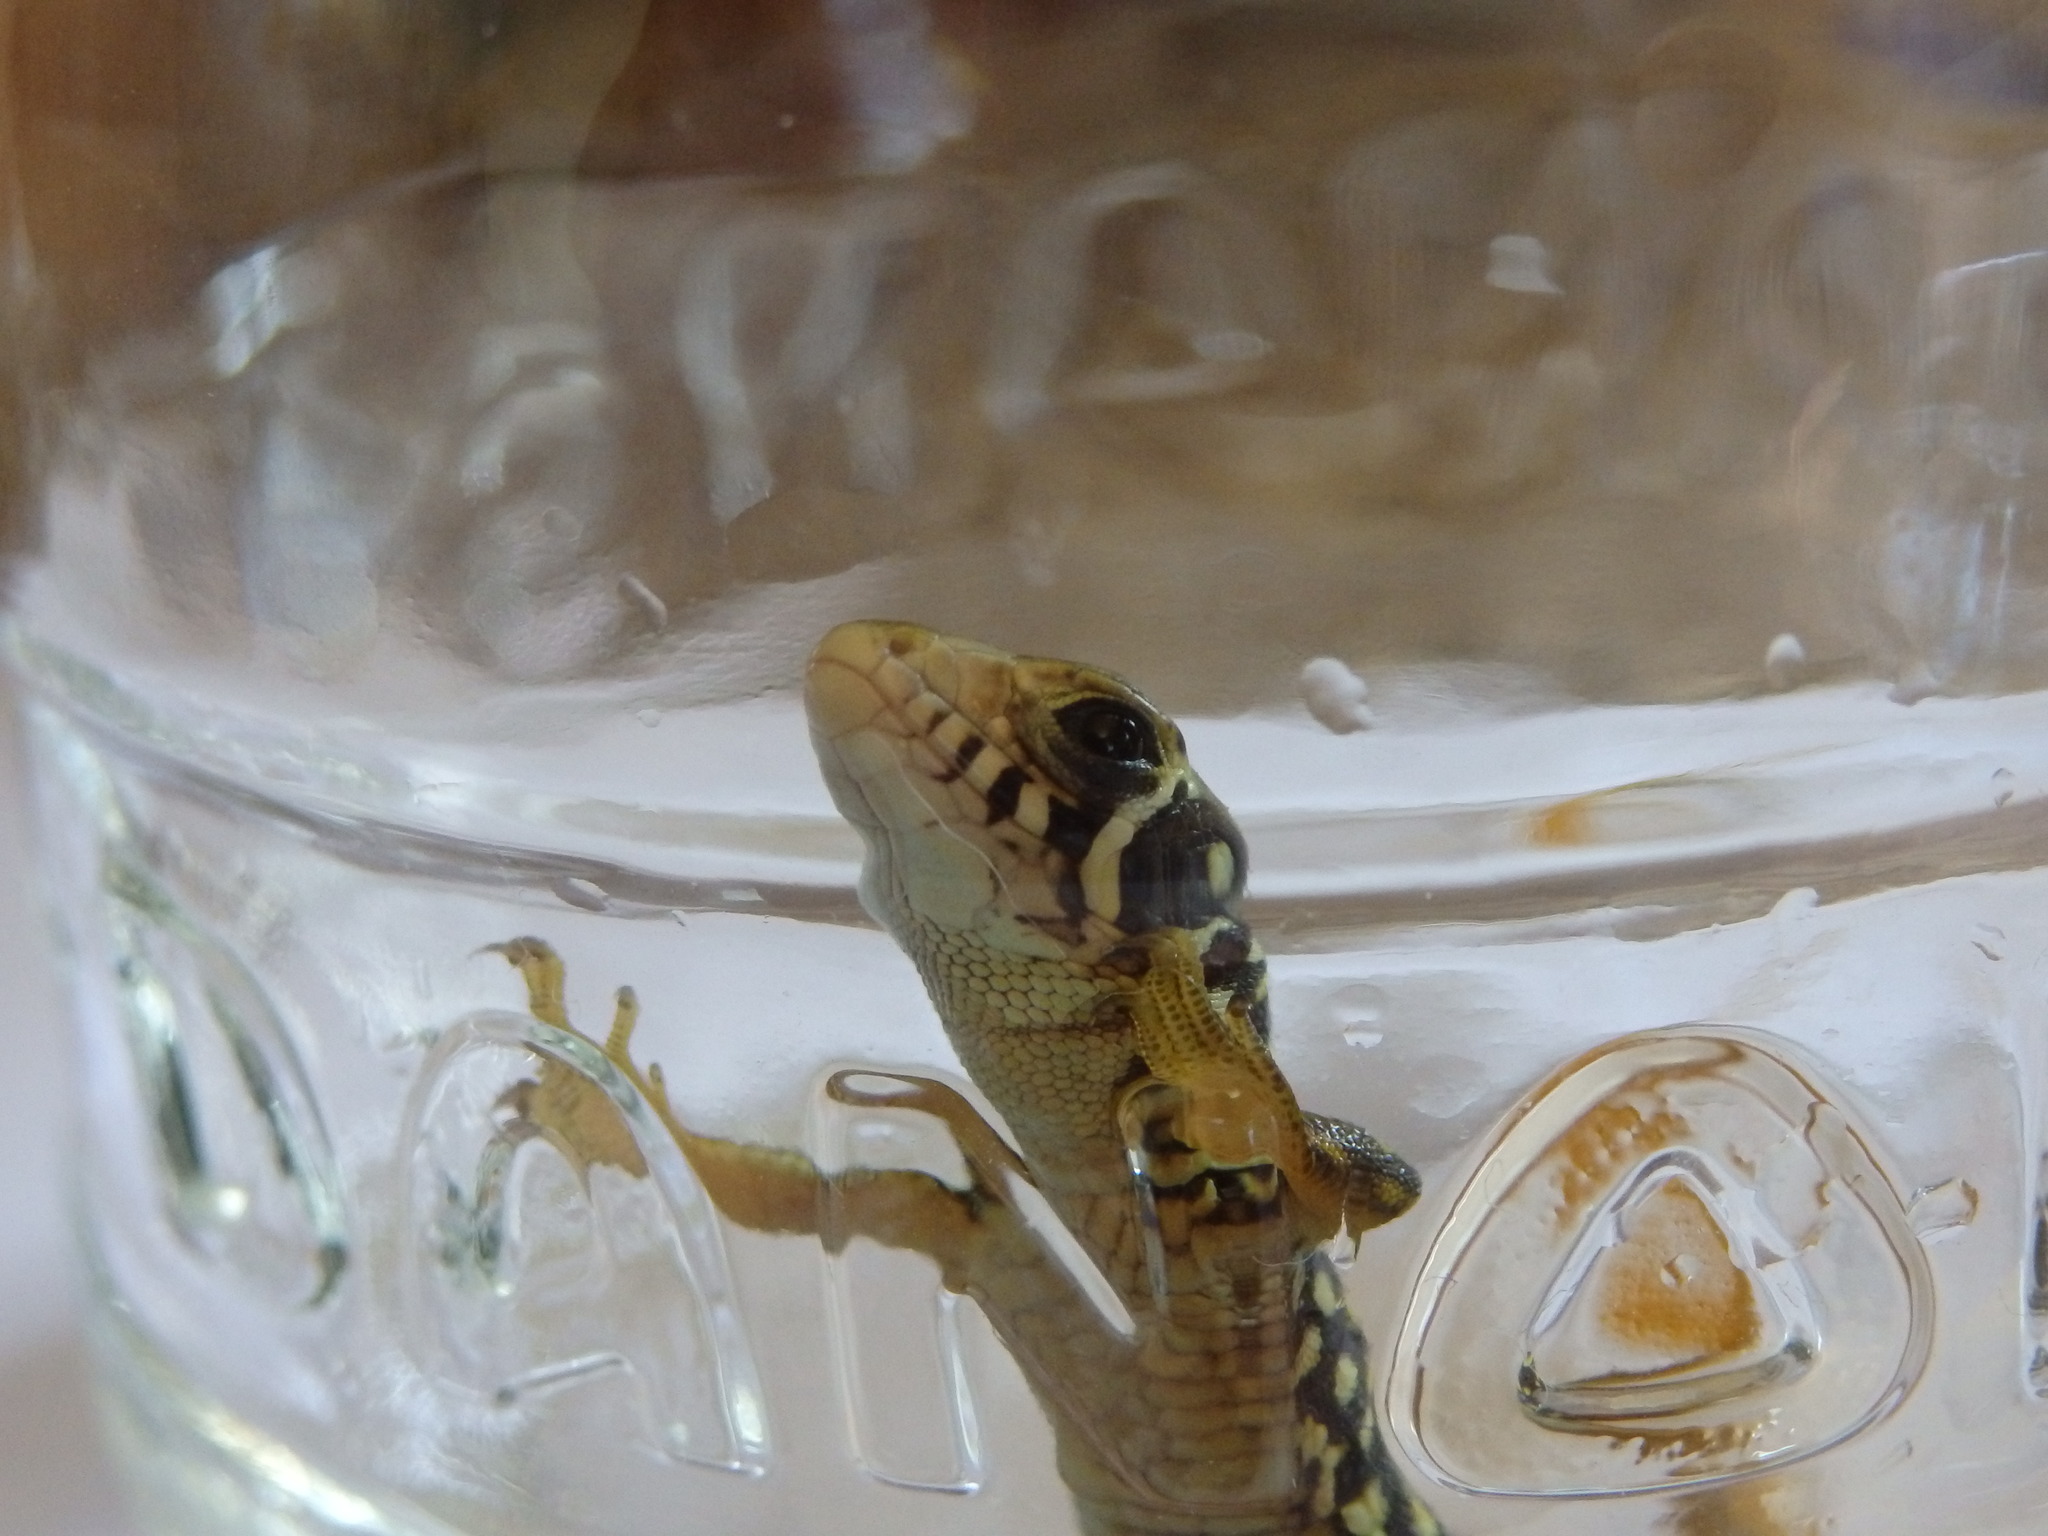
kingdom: Animalia
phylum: Chordata
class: Squamata
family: Lacertidae
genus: Lacerta
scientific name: Lacerta schreiberi
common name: Iberian emerald lizard
